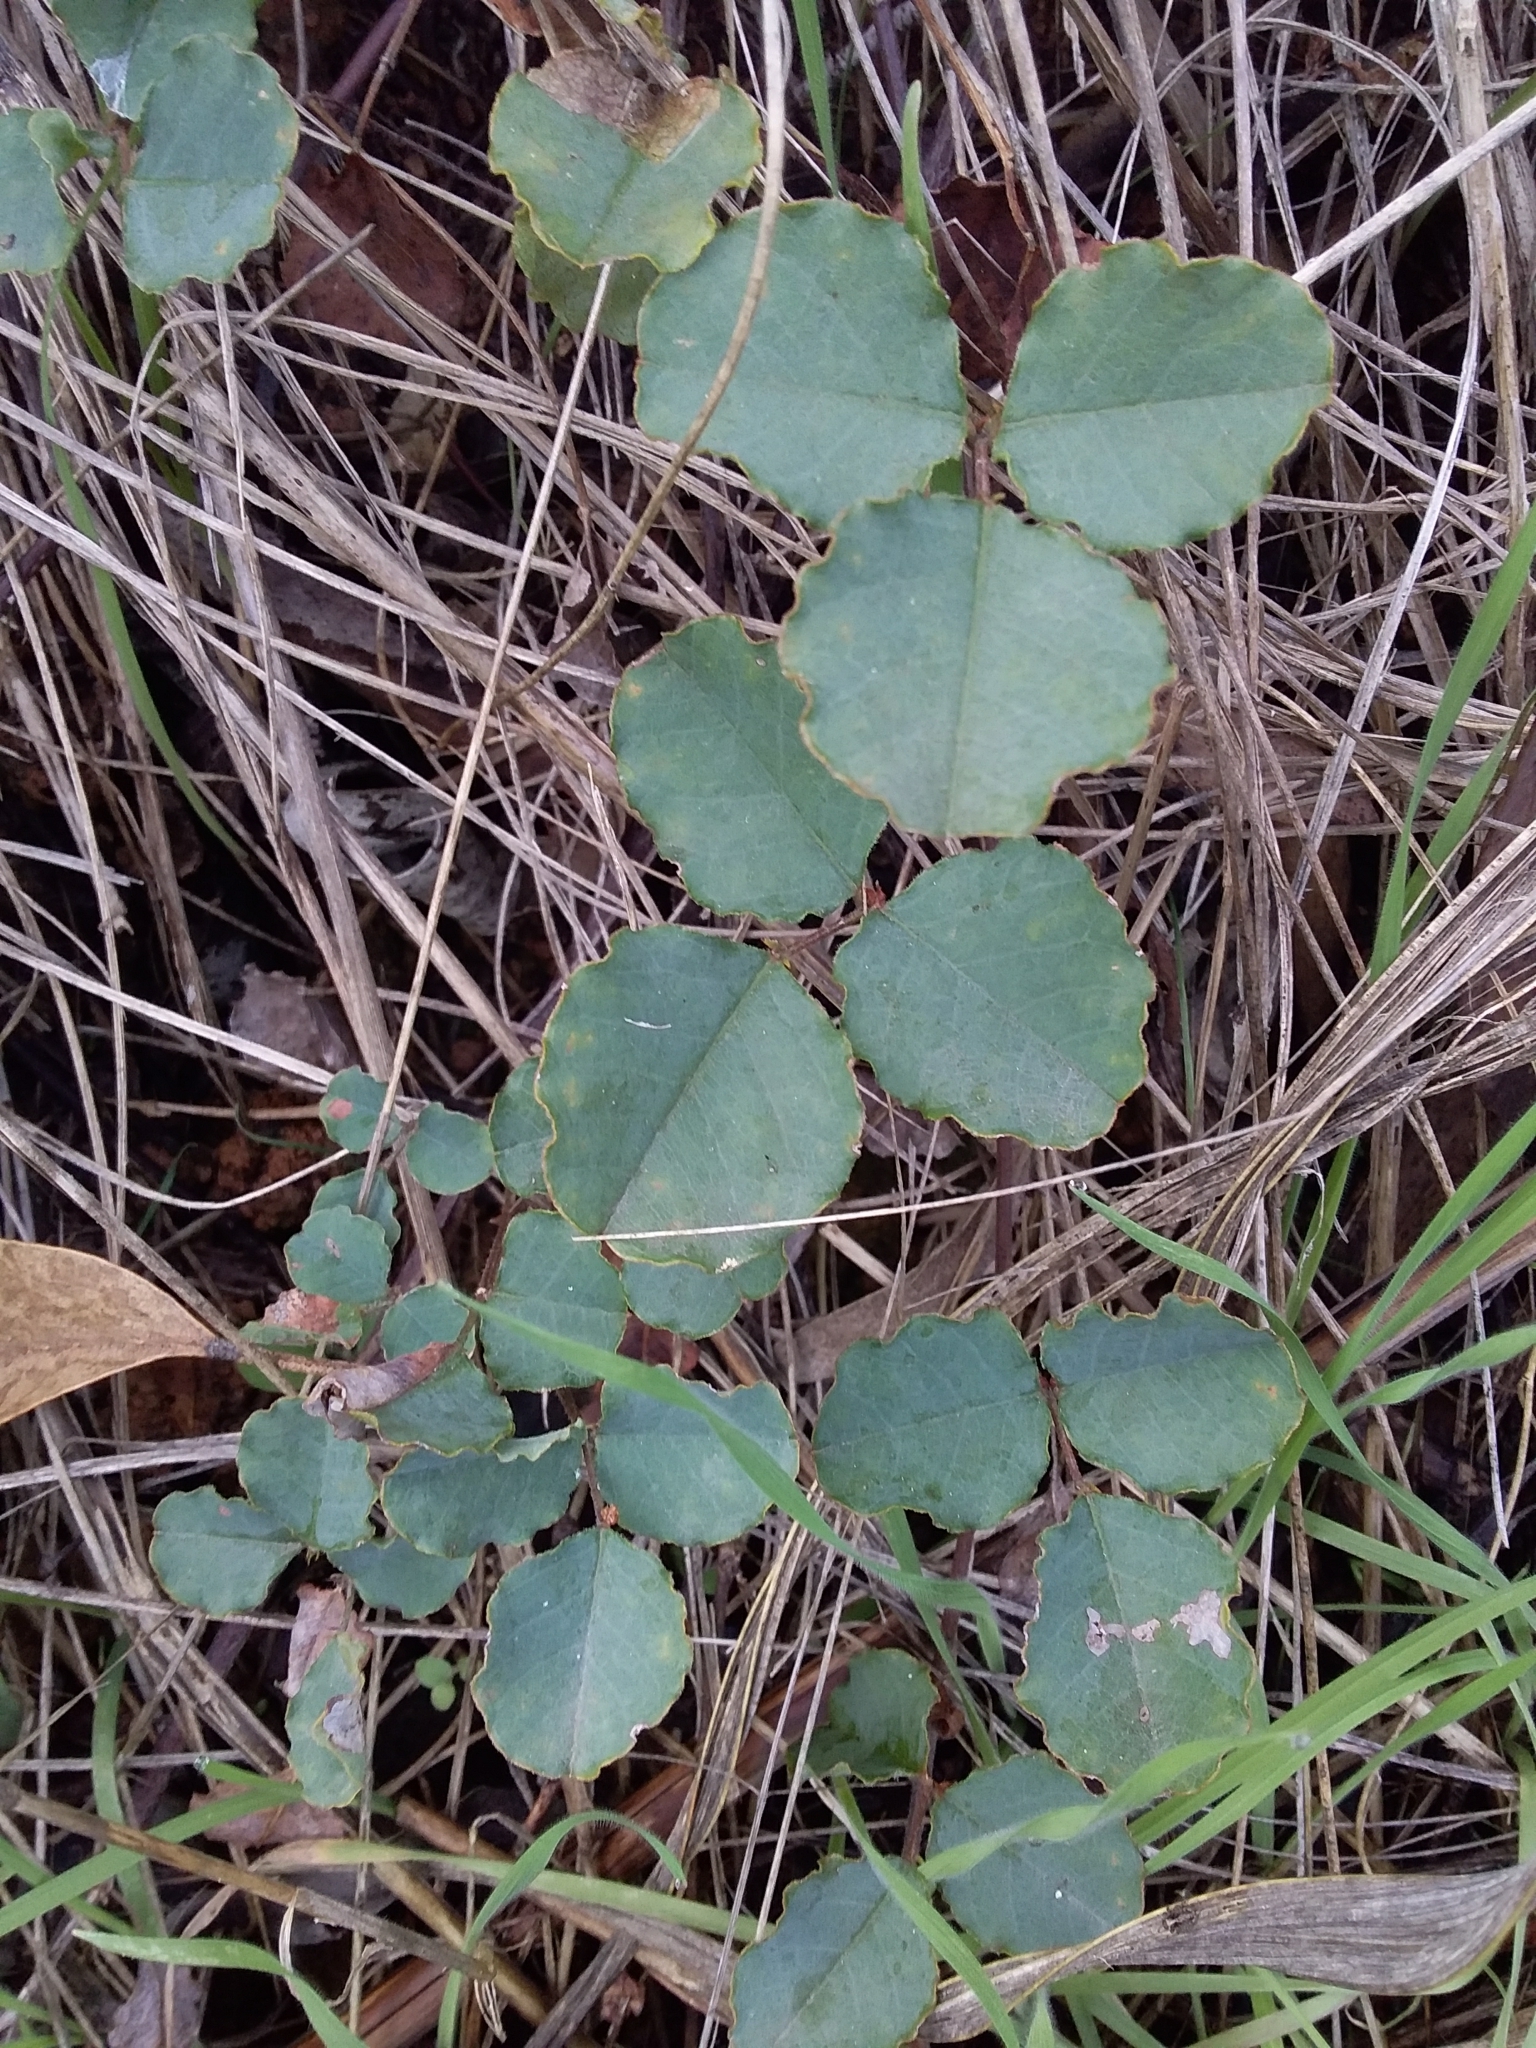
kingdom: Plantae
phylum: Tracheophyta
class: Magnoliopsida
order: Fabales
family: Fabaceae
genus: Kennedia
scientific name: Kennedia prostrata
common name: Running-postman
